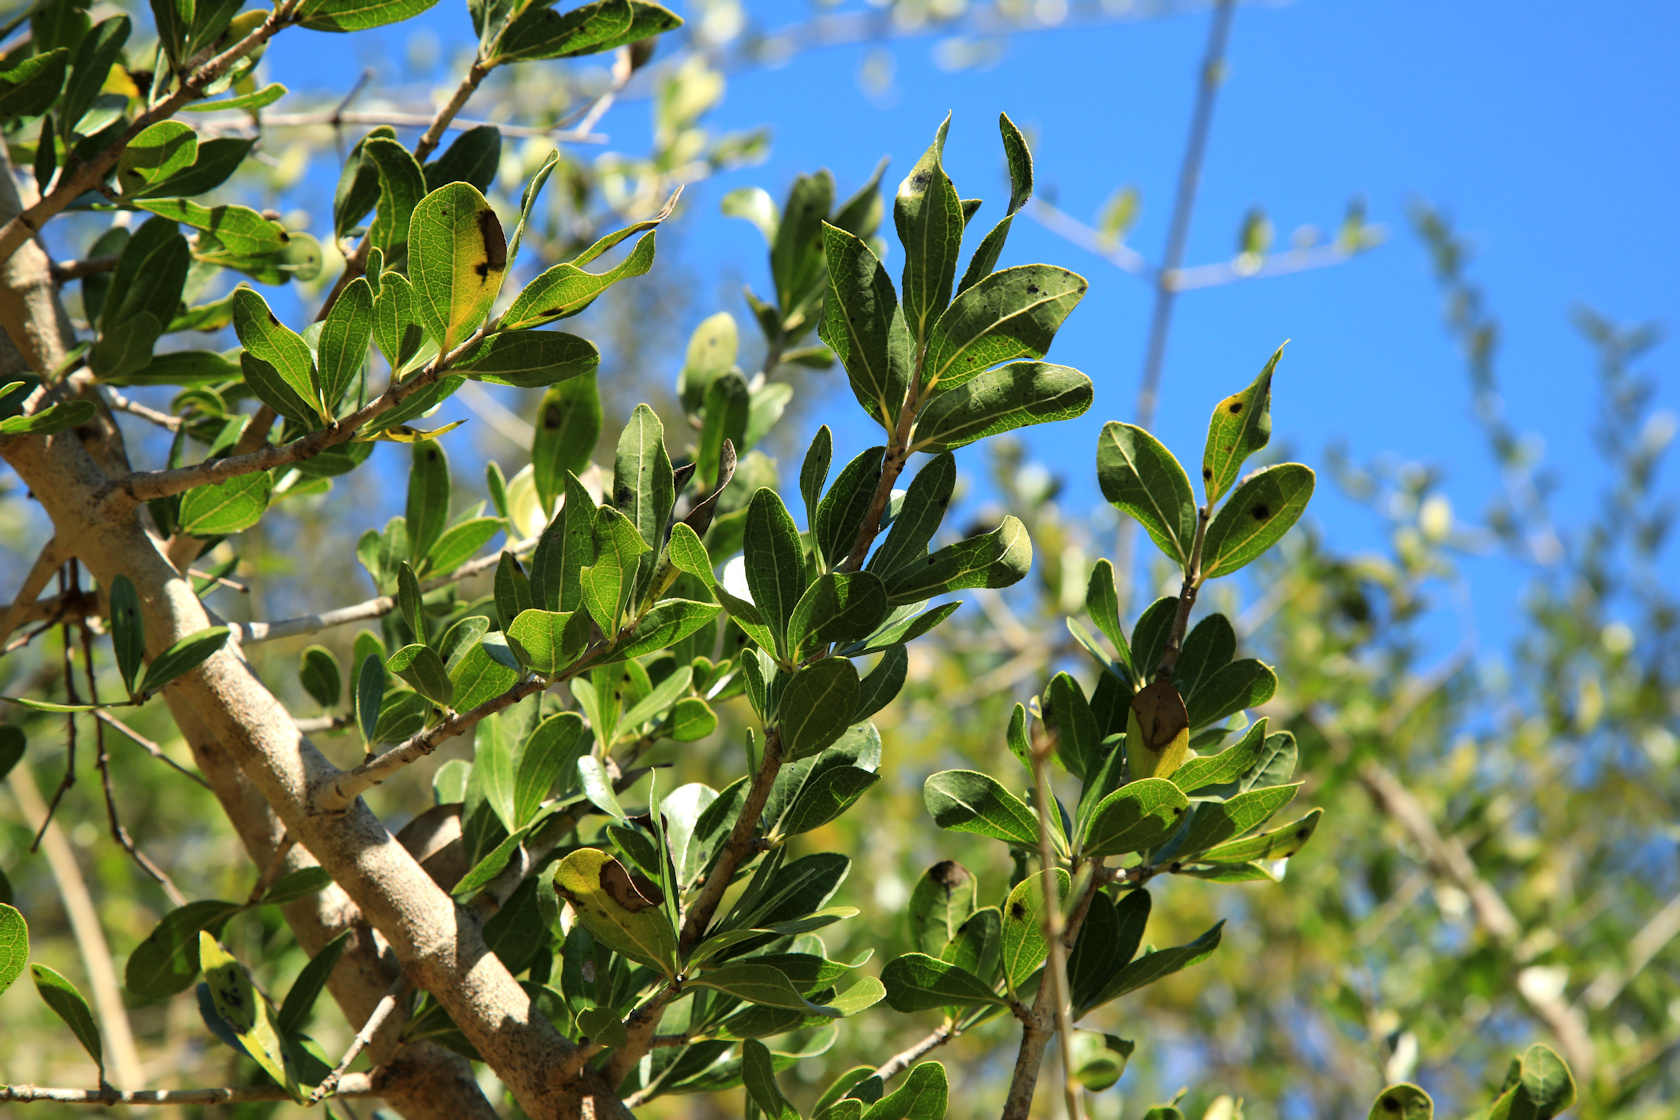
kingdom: Plantae
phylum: Tracheophyta
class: Magnoliopsida
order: Gentianales
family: Loganiaceae
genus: Strychnos
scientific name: Strychnos madagascariensis
